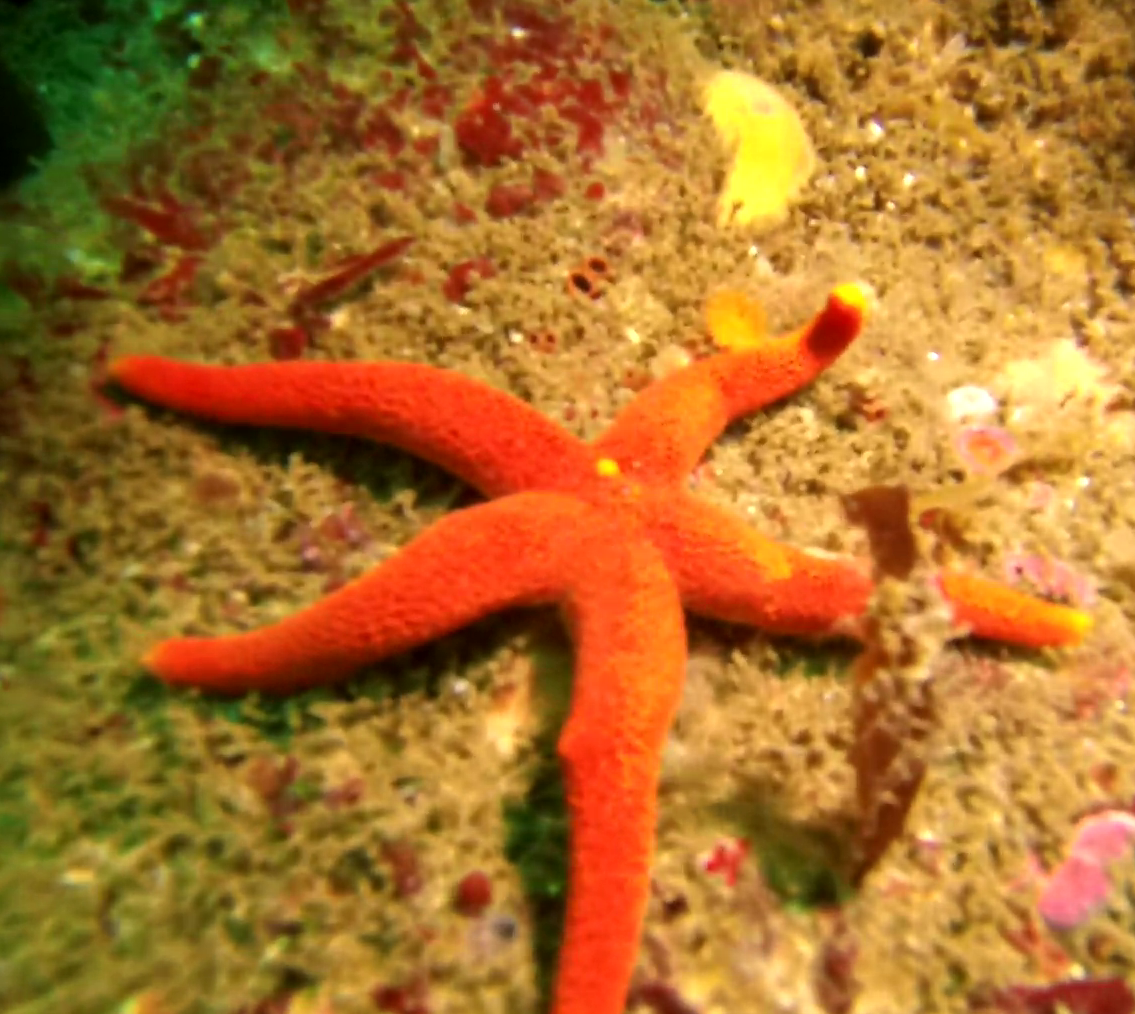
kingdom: Animalia
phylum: Echinodermata
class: Asteroidea
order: Spinulosida
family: Echinasteridae
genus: Henricia
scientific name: Henricia leviuscula
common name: Pacific blood star
